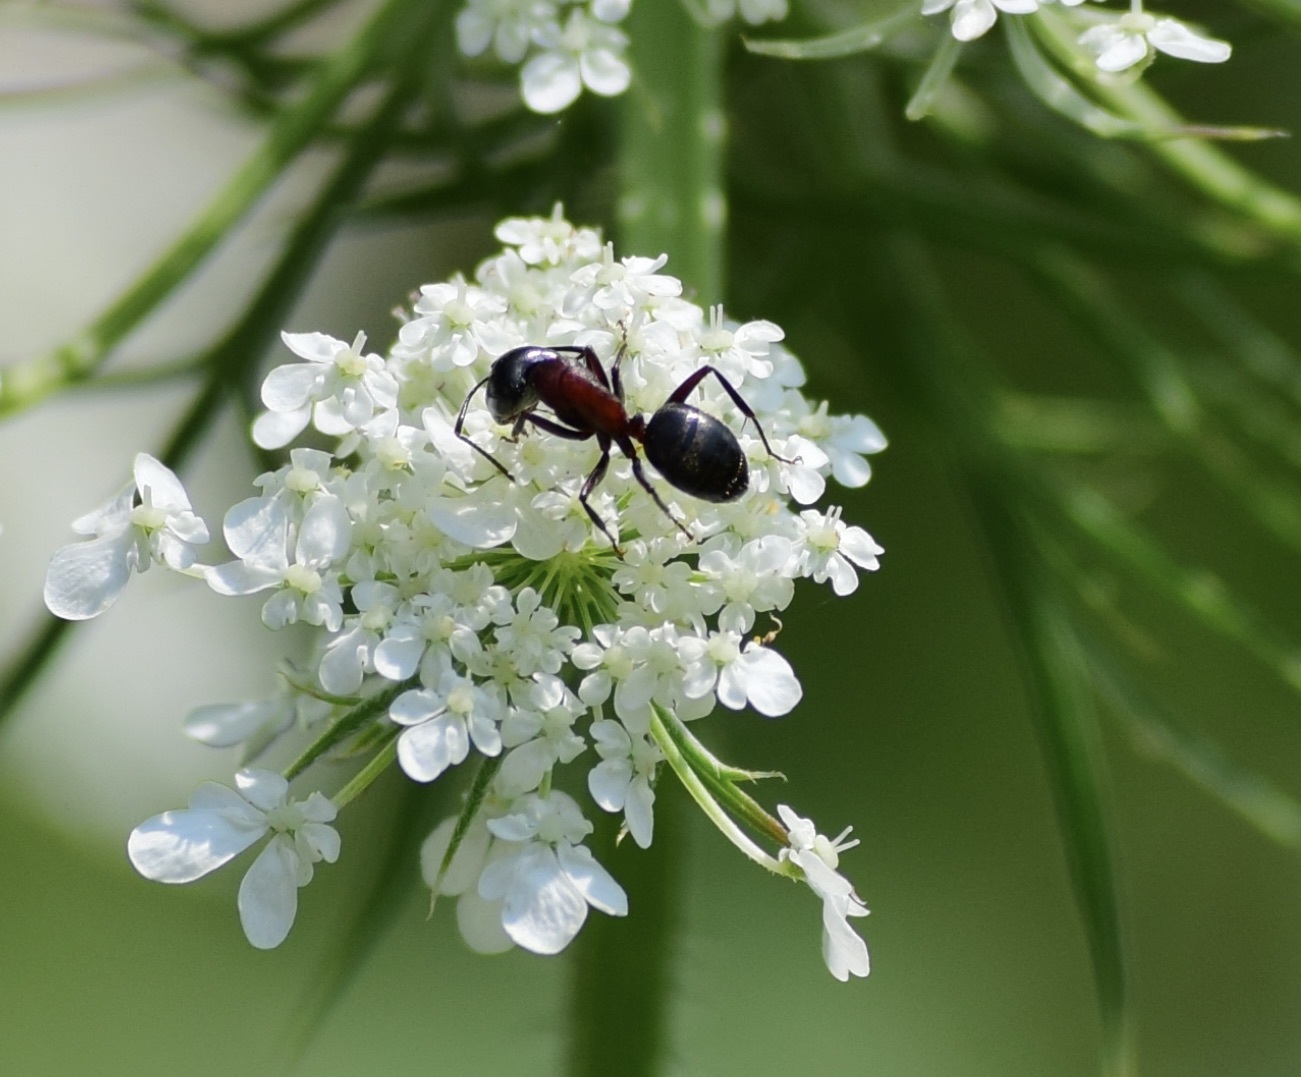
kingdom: Animalia
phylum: Arthropoda
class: Insecta
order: Hymenoptera
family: Formicidae
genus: Camponotus
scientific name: Camponotus novaeboracensis
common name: New york carpenter ant
